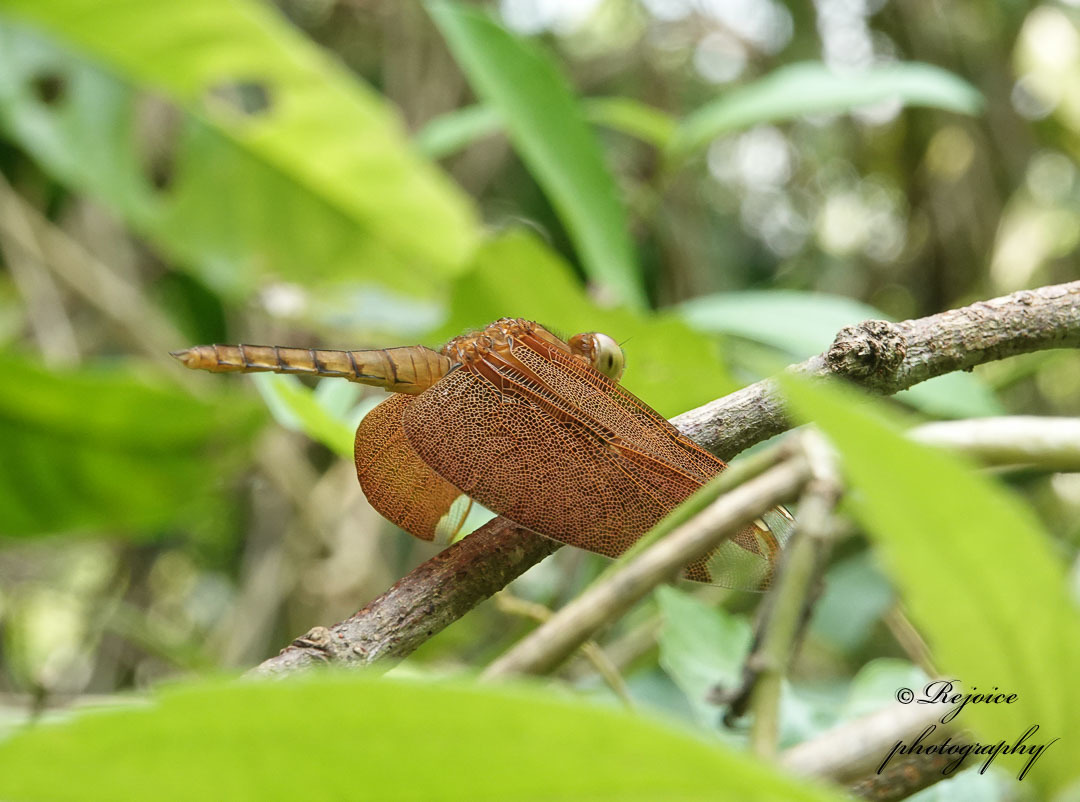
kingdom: Animalia
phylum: Arthropoda
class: Insecta
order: Odonata
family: Libellulidae
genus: Neurothemis
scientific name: Neurothemis fulvia
